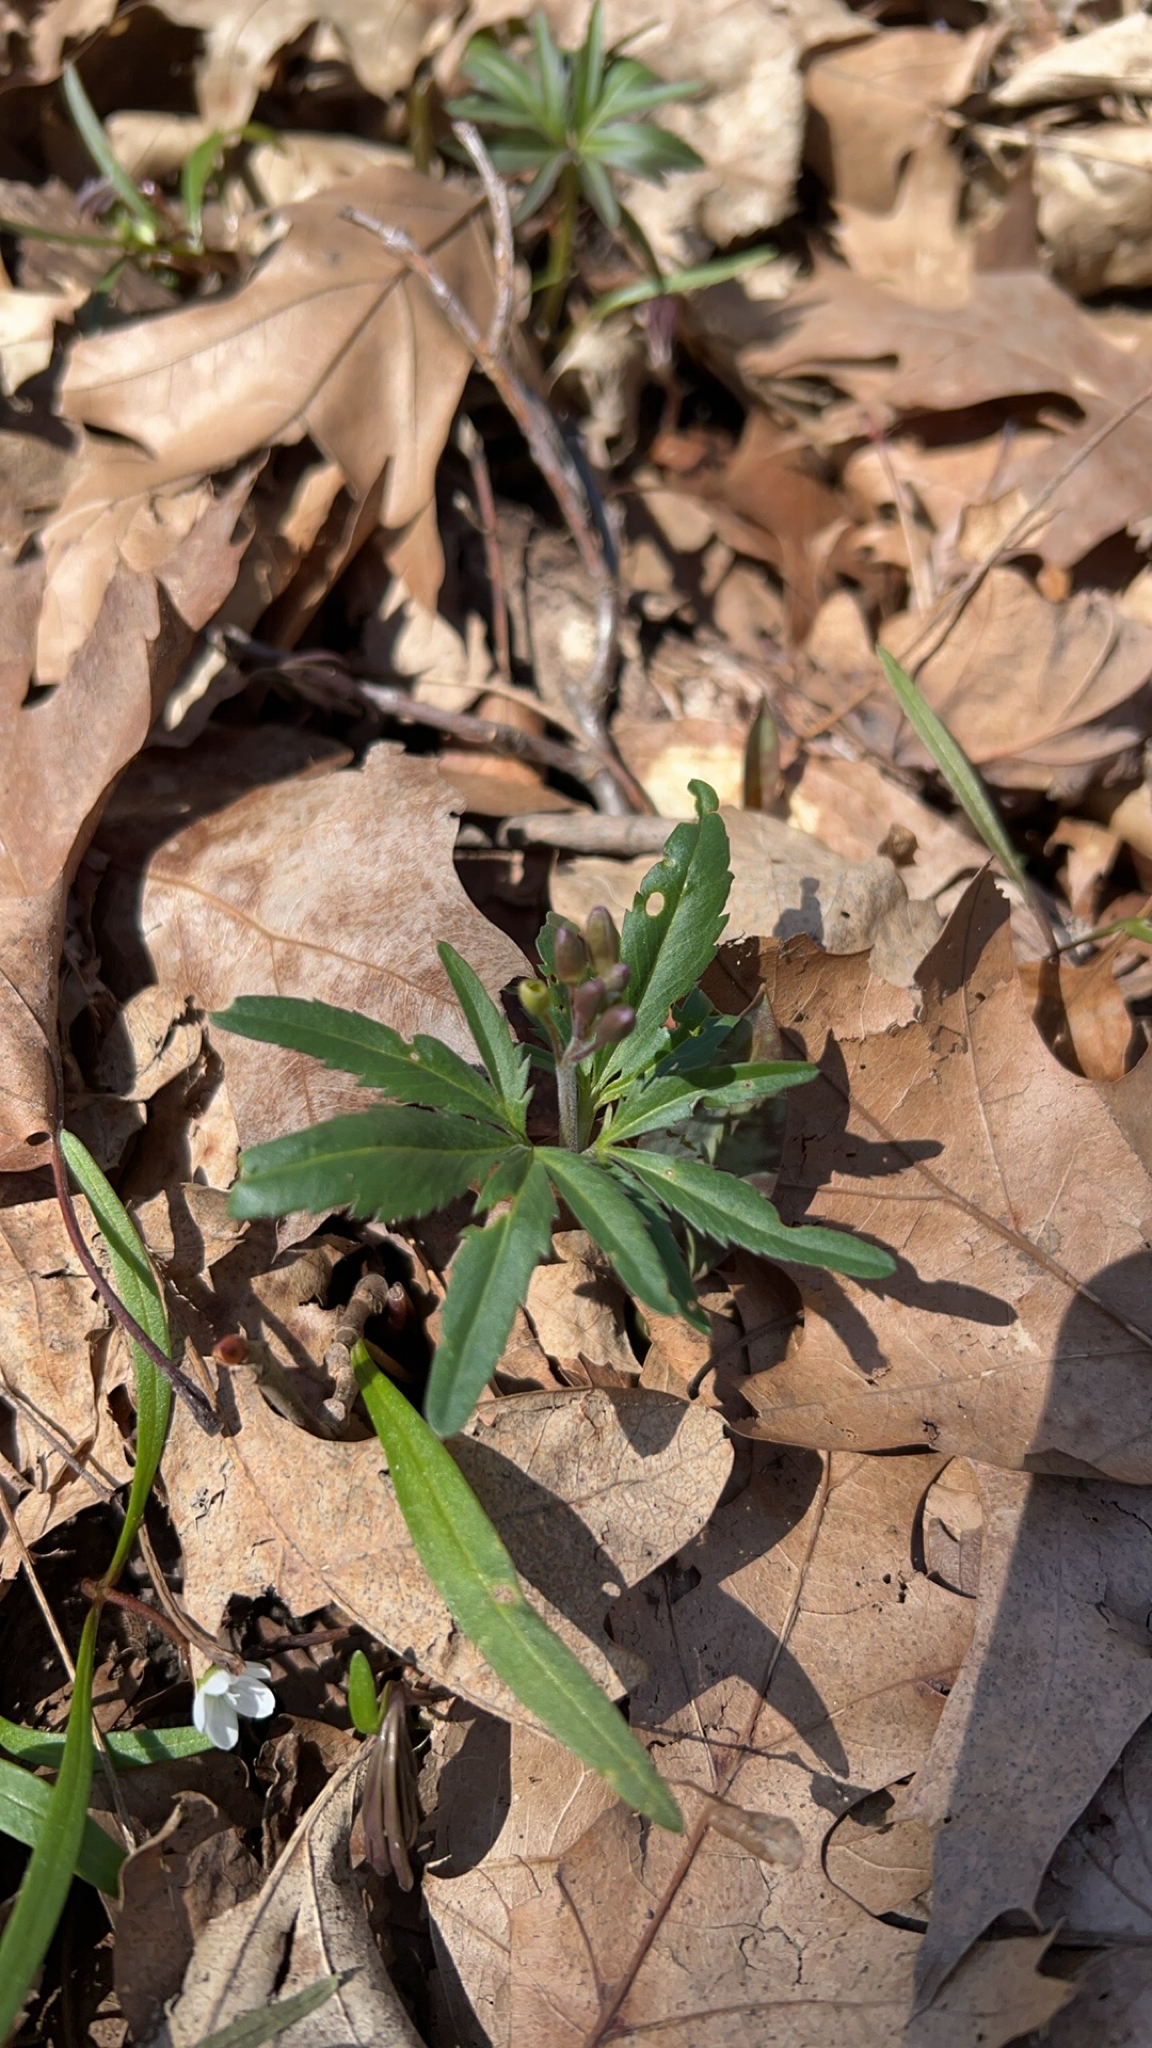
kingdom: Plantae
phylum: Tracheophyta
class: Magnoliopsida
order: Brassicales
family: Brassicaceae
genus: Cardamine
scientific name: Cardamine concatenata
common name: Cut-leaf toothcup
